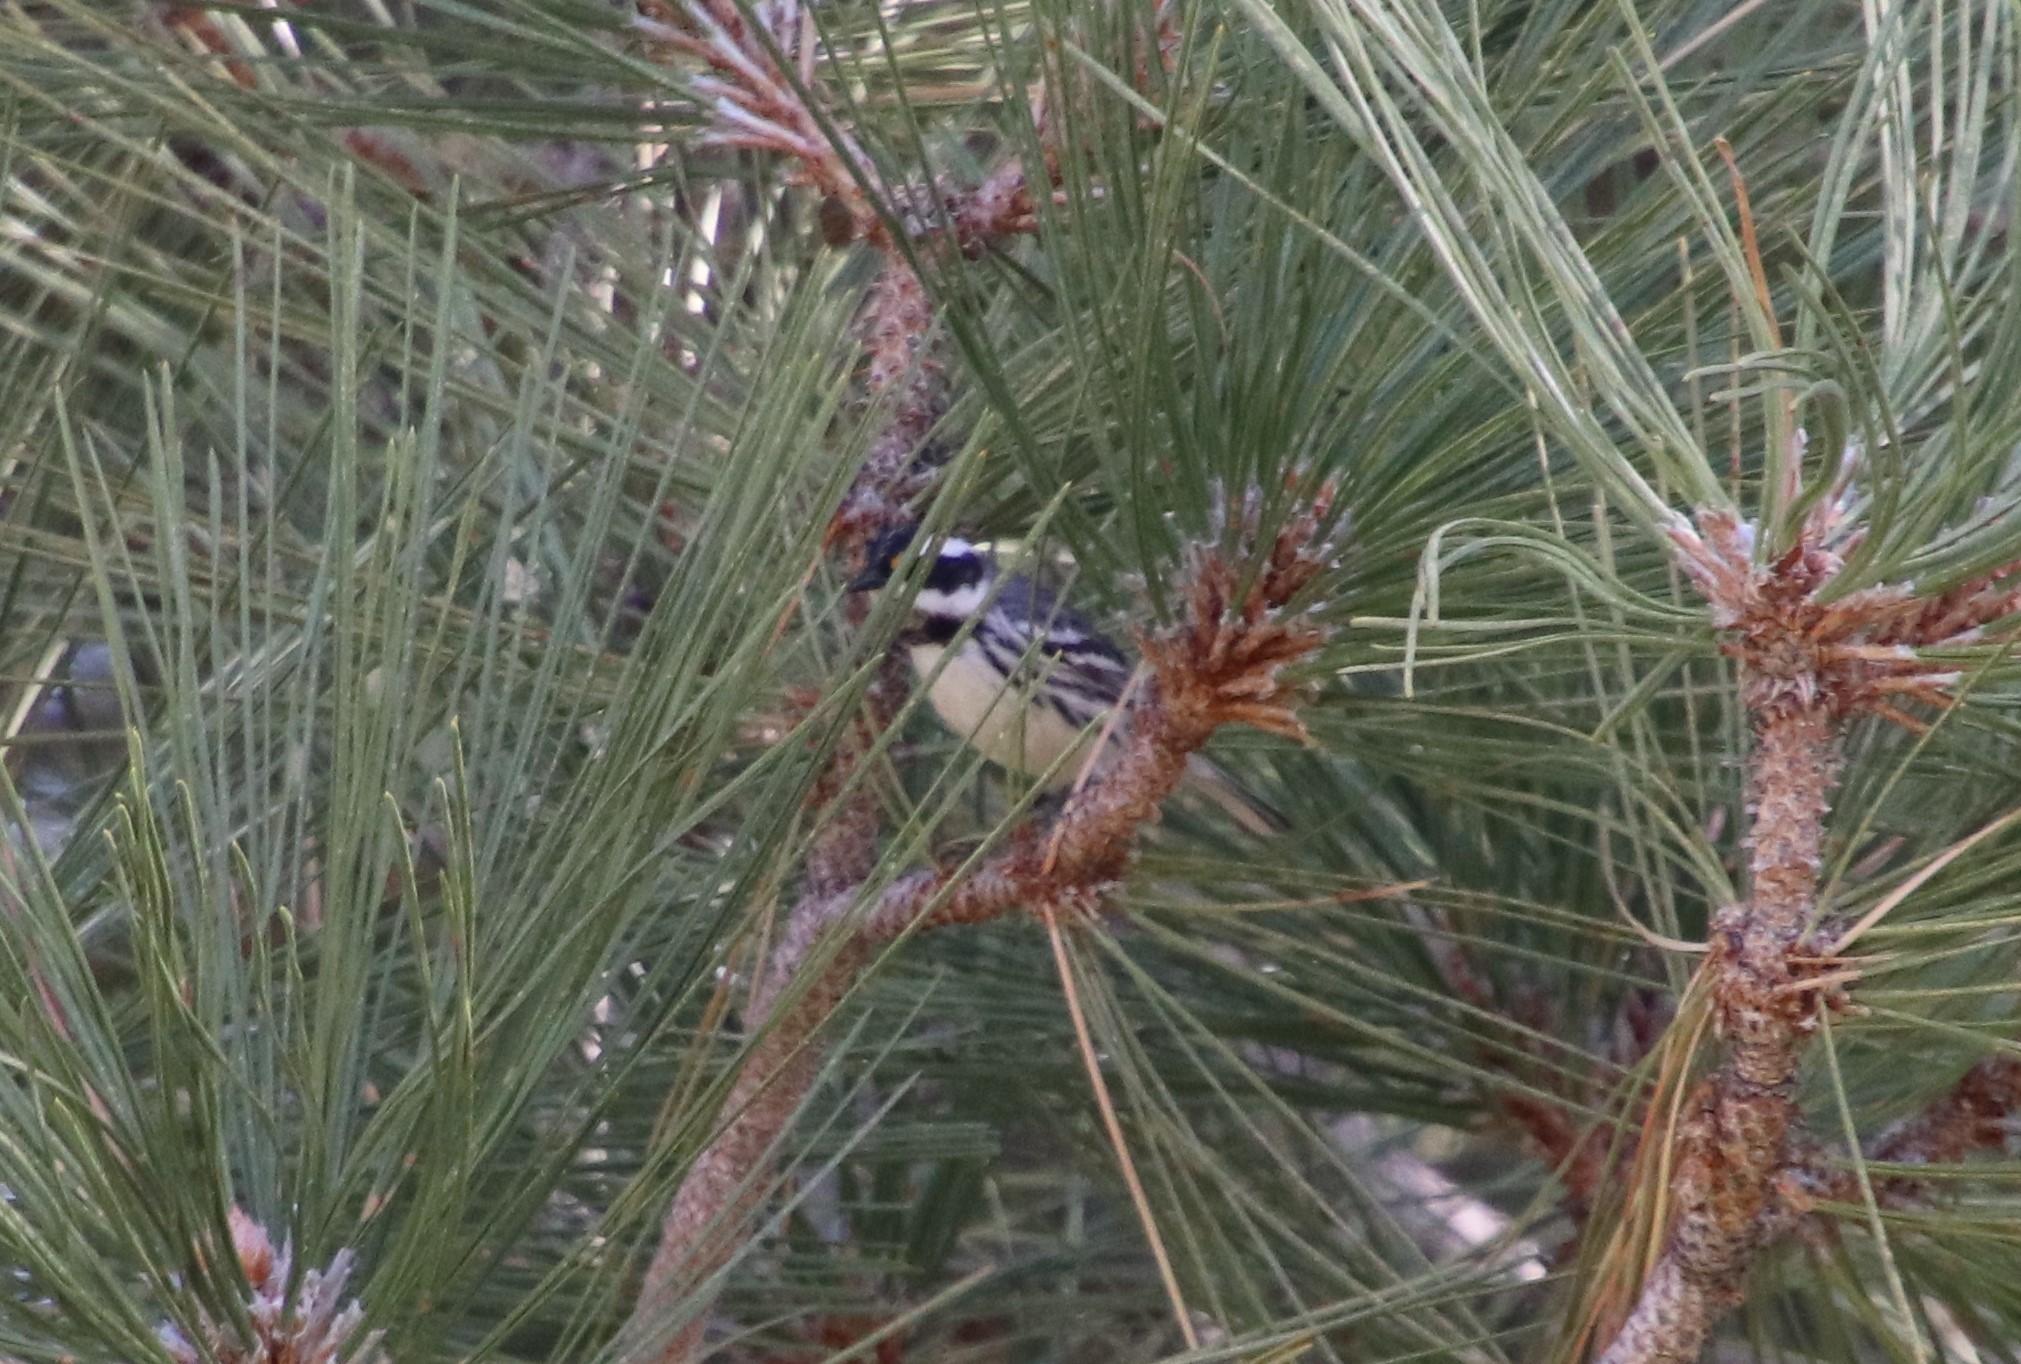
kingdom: Animalia
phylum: Chordata
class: Aves
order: Passeriformes
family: Parulidae
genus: Setophaga
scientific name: Setophaga nigrescens
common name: Black-throated gray warbler
